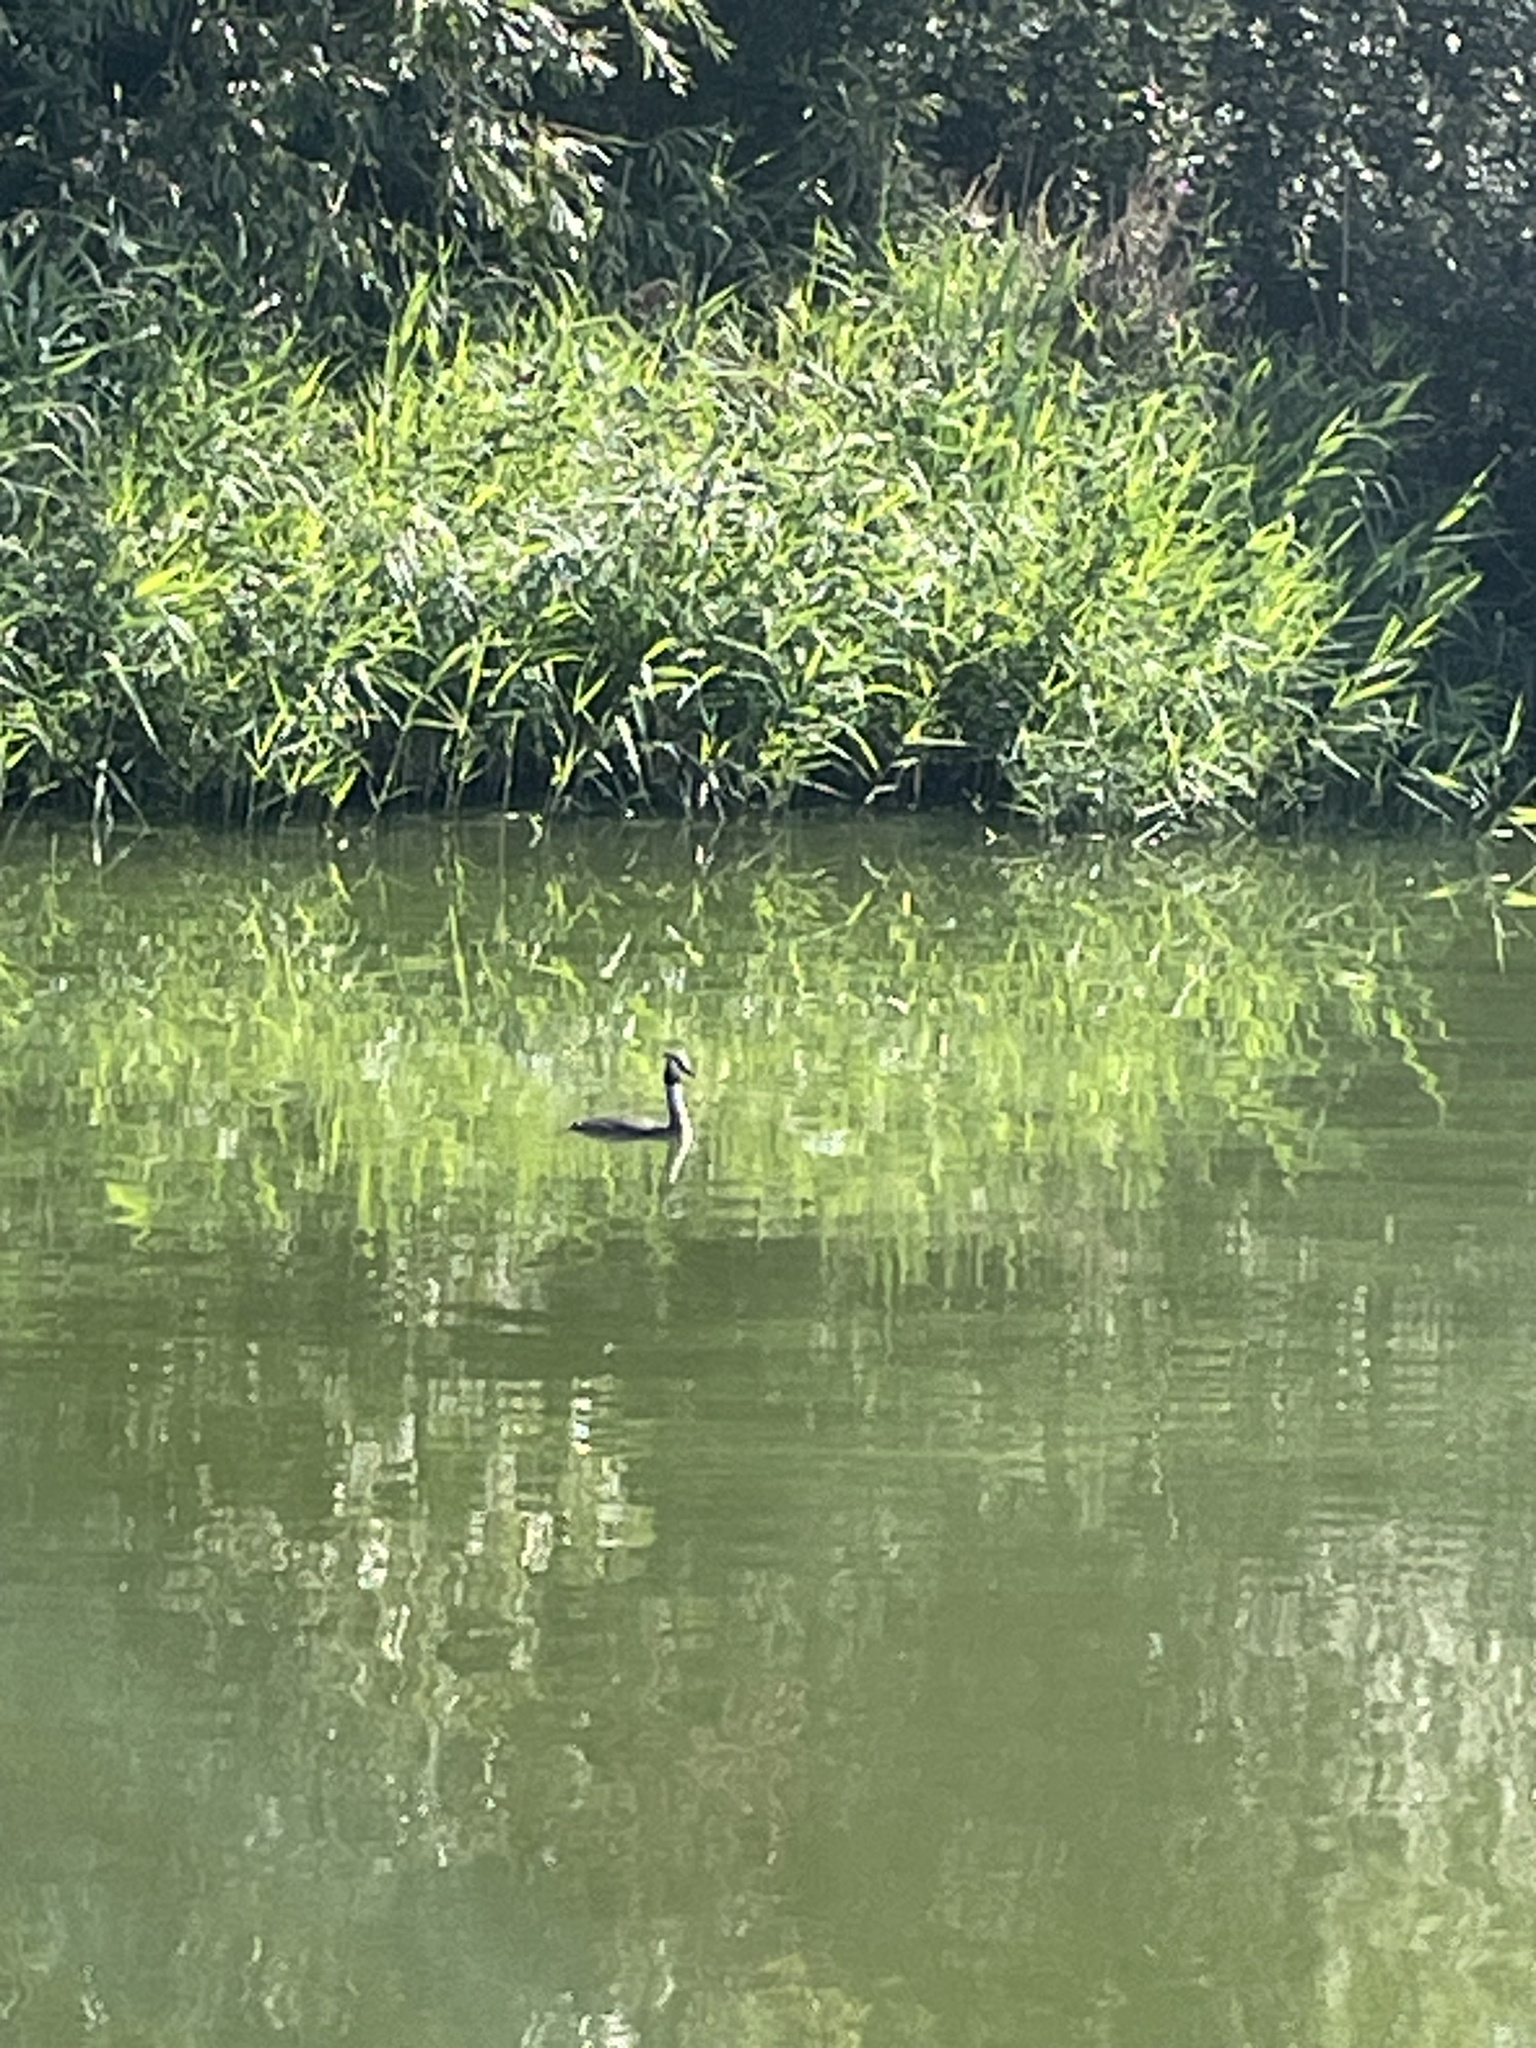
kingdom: Animalia
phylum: Chordata
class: Aves
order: Podicipediformes
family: Podicipedidae
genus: Podiceps
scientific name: Podiceps cristatus
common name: Great crested grebe
